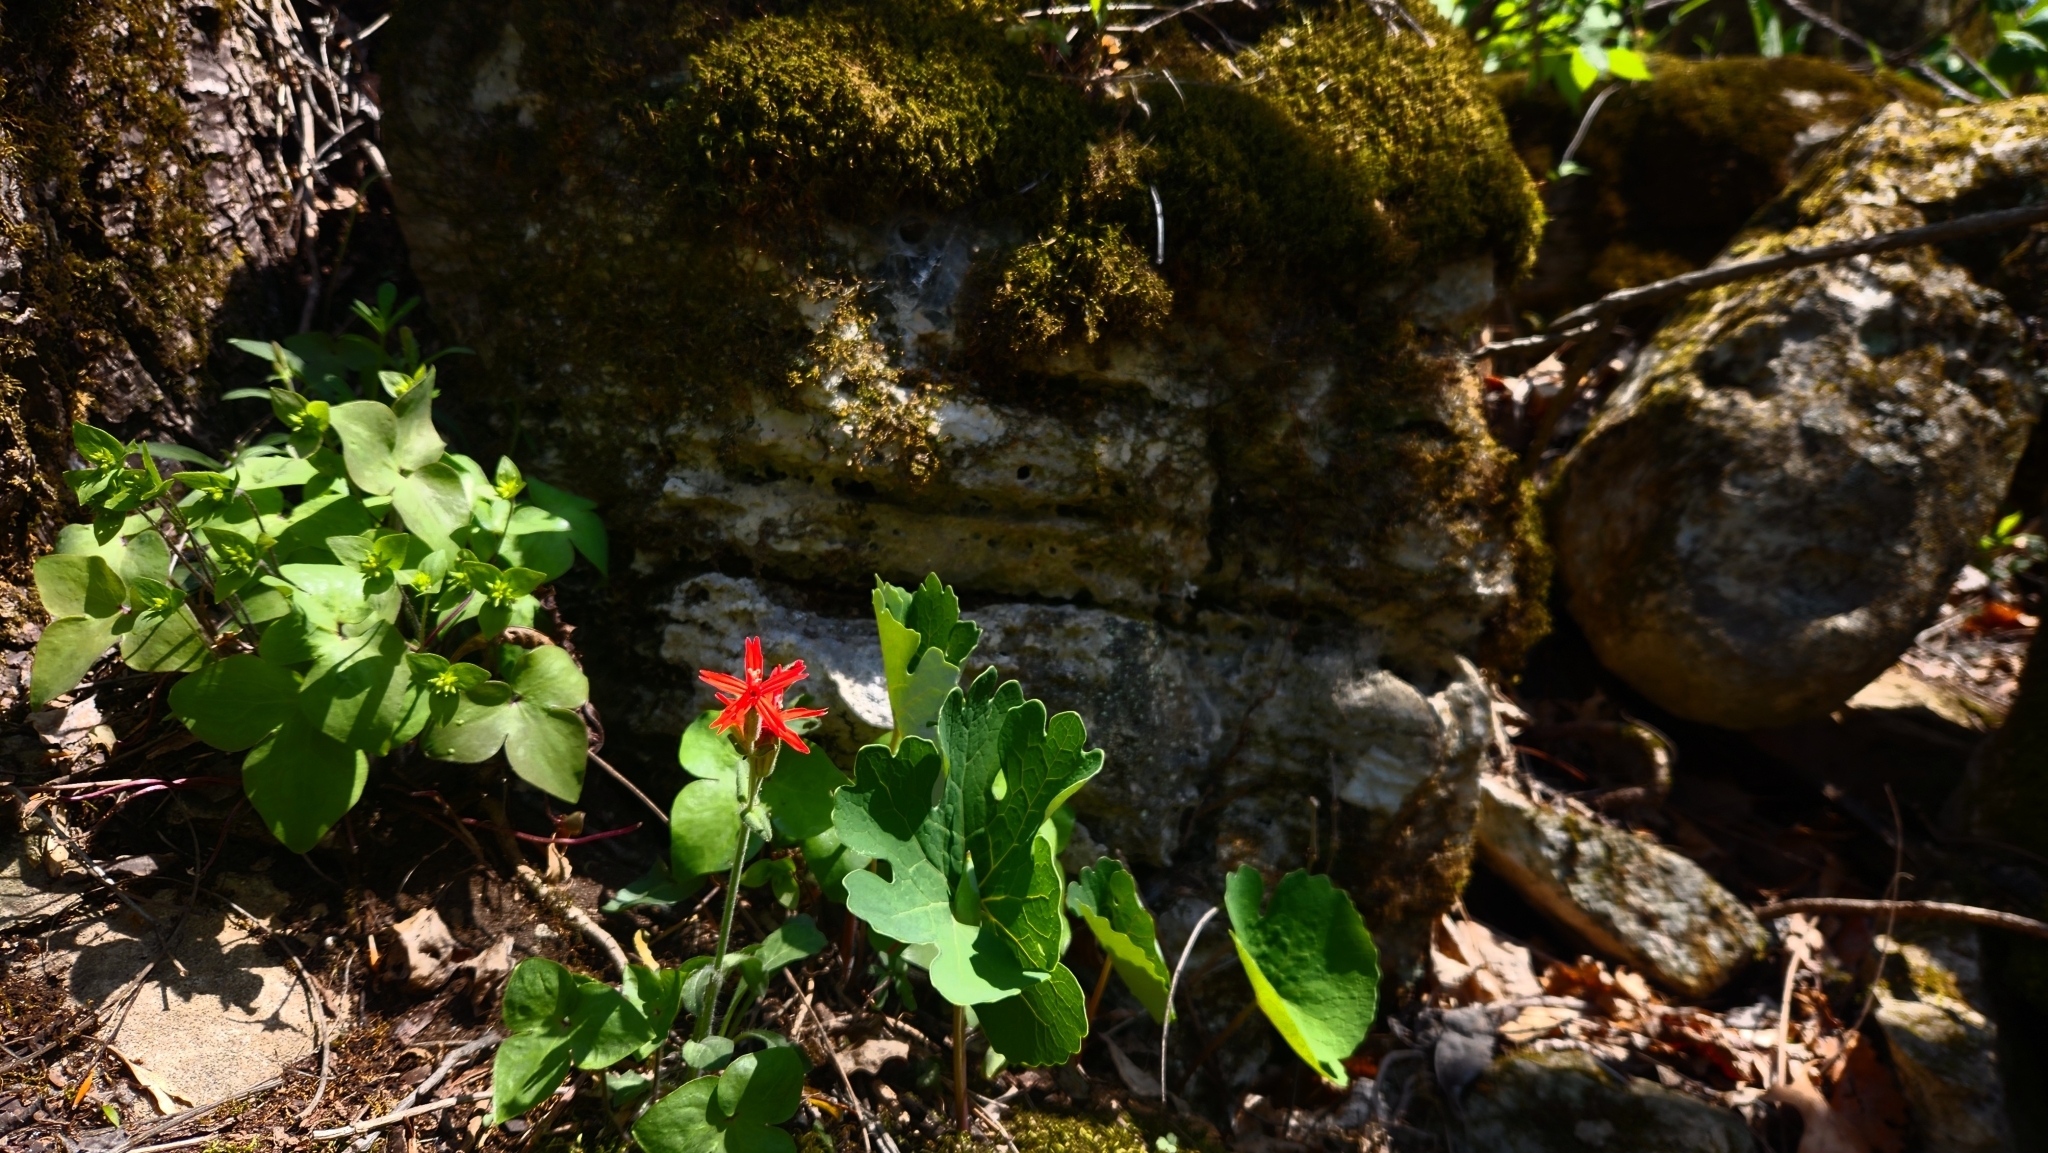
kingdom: Plantae
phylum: Tracheophyta
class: Magnoliopsida
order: Caryophyllales
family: Caryophyllaceae
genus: Silene
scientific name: Silene virginica
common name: Fire-pink
